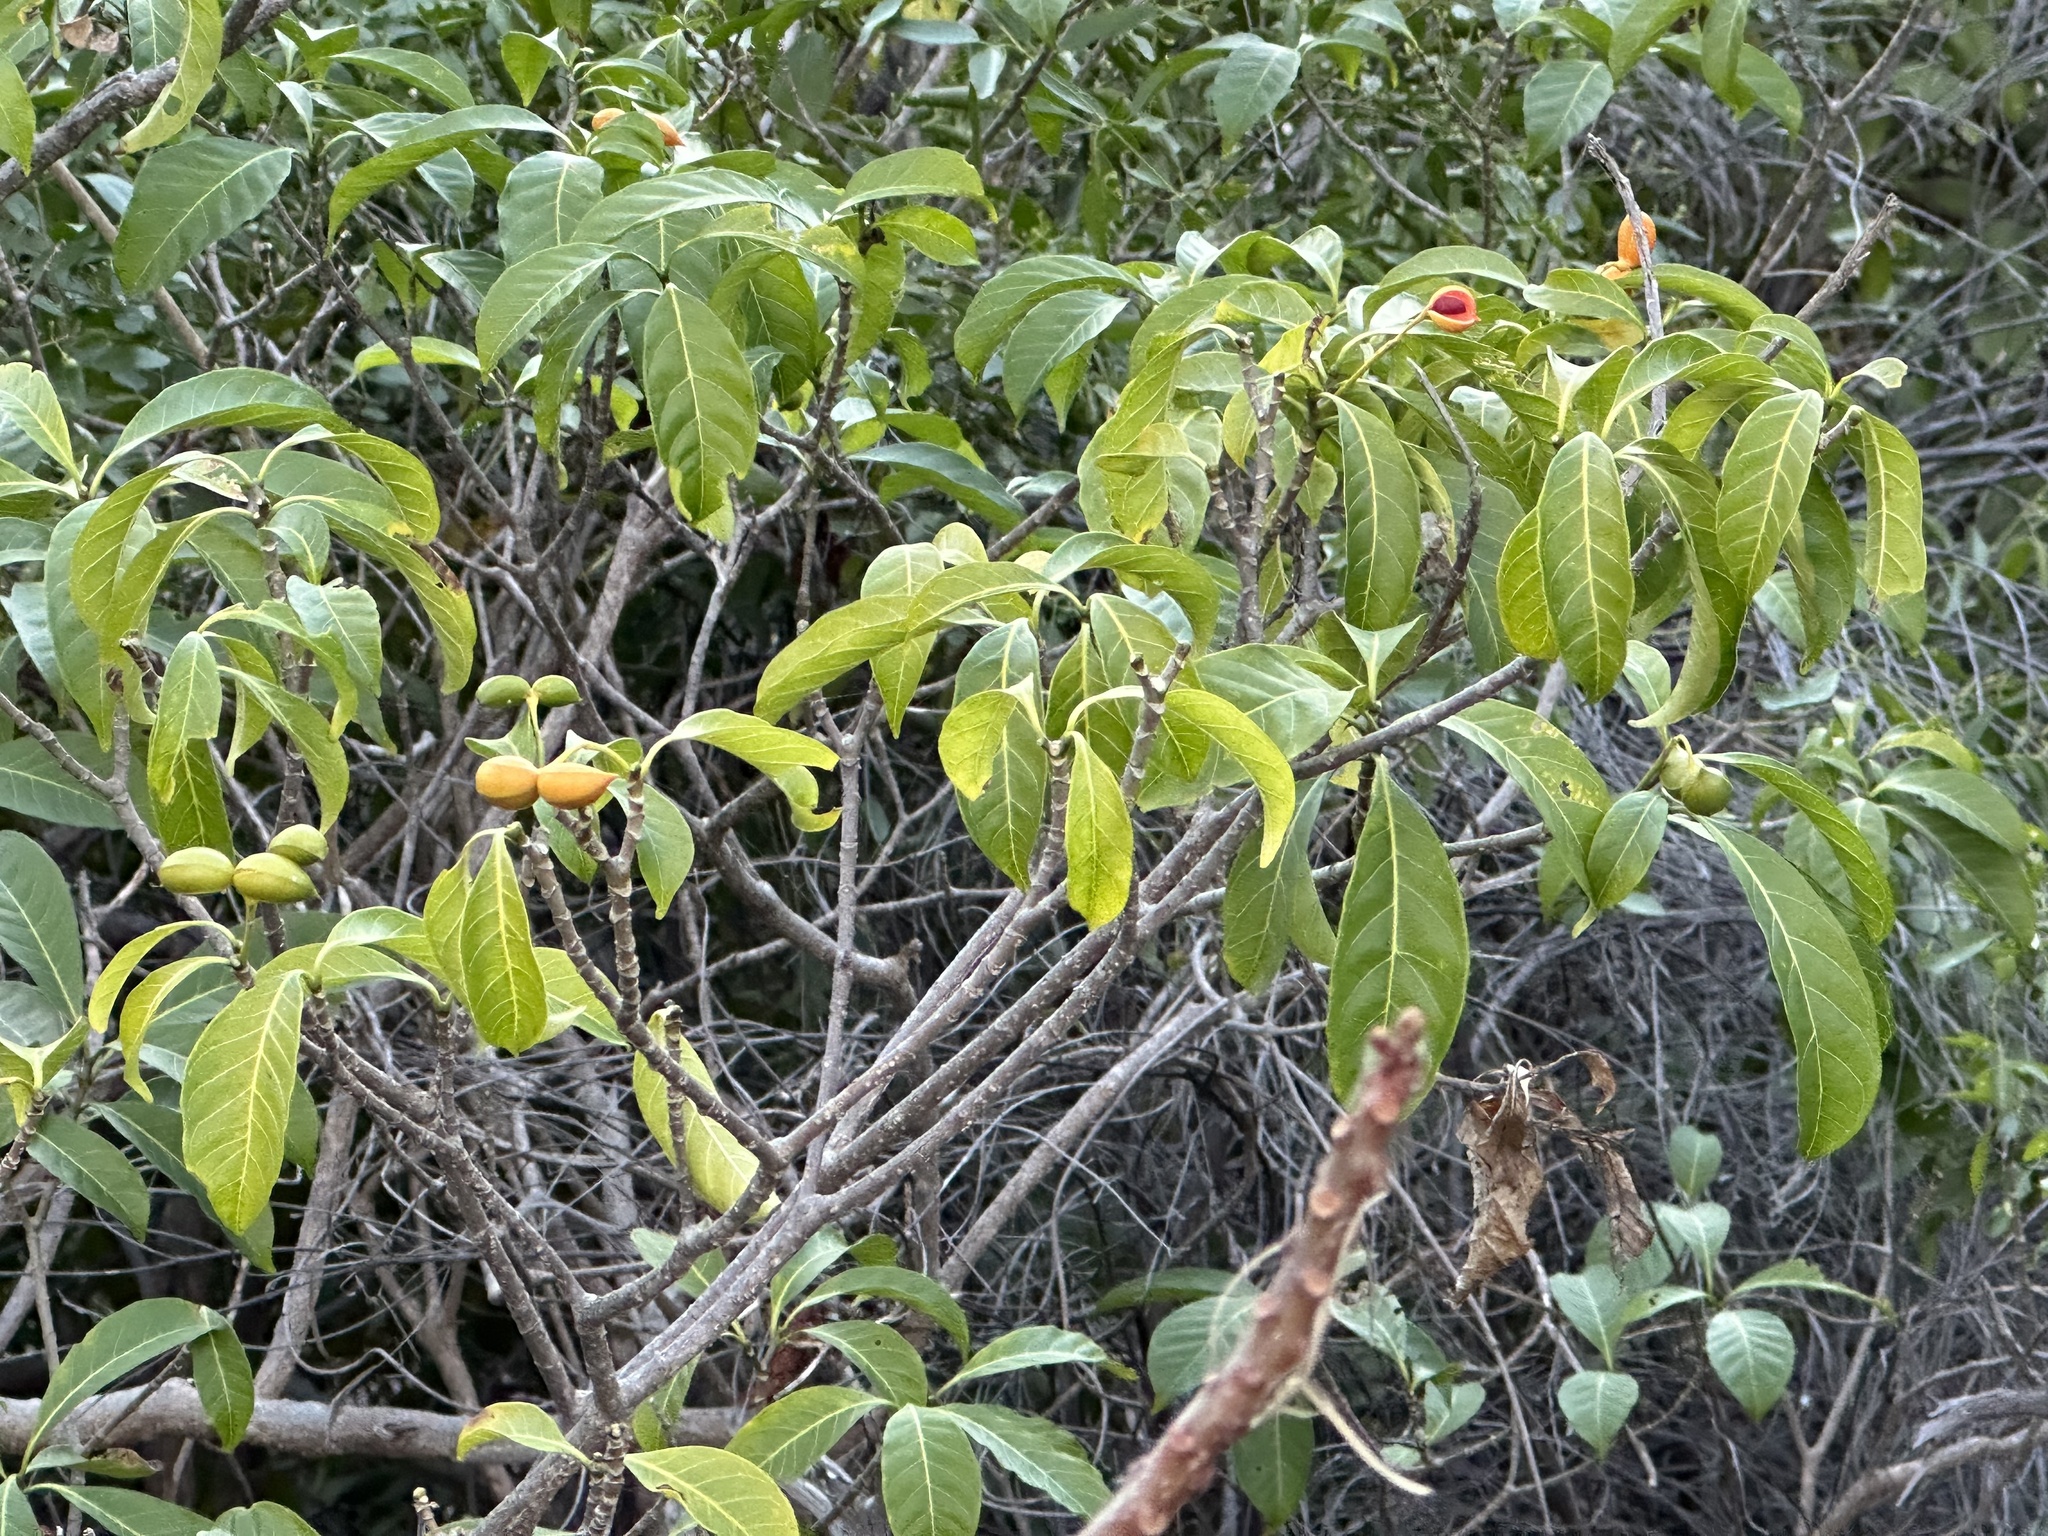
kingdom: Plantae
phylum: Tracheophyta
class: Magnoliopsida
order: Gentianales
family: Apocynaceae
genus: Tabernaemontana
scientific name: Tabernaemontana pandacaqui
